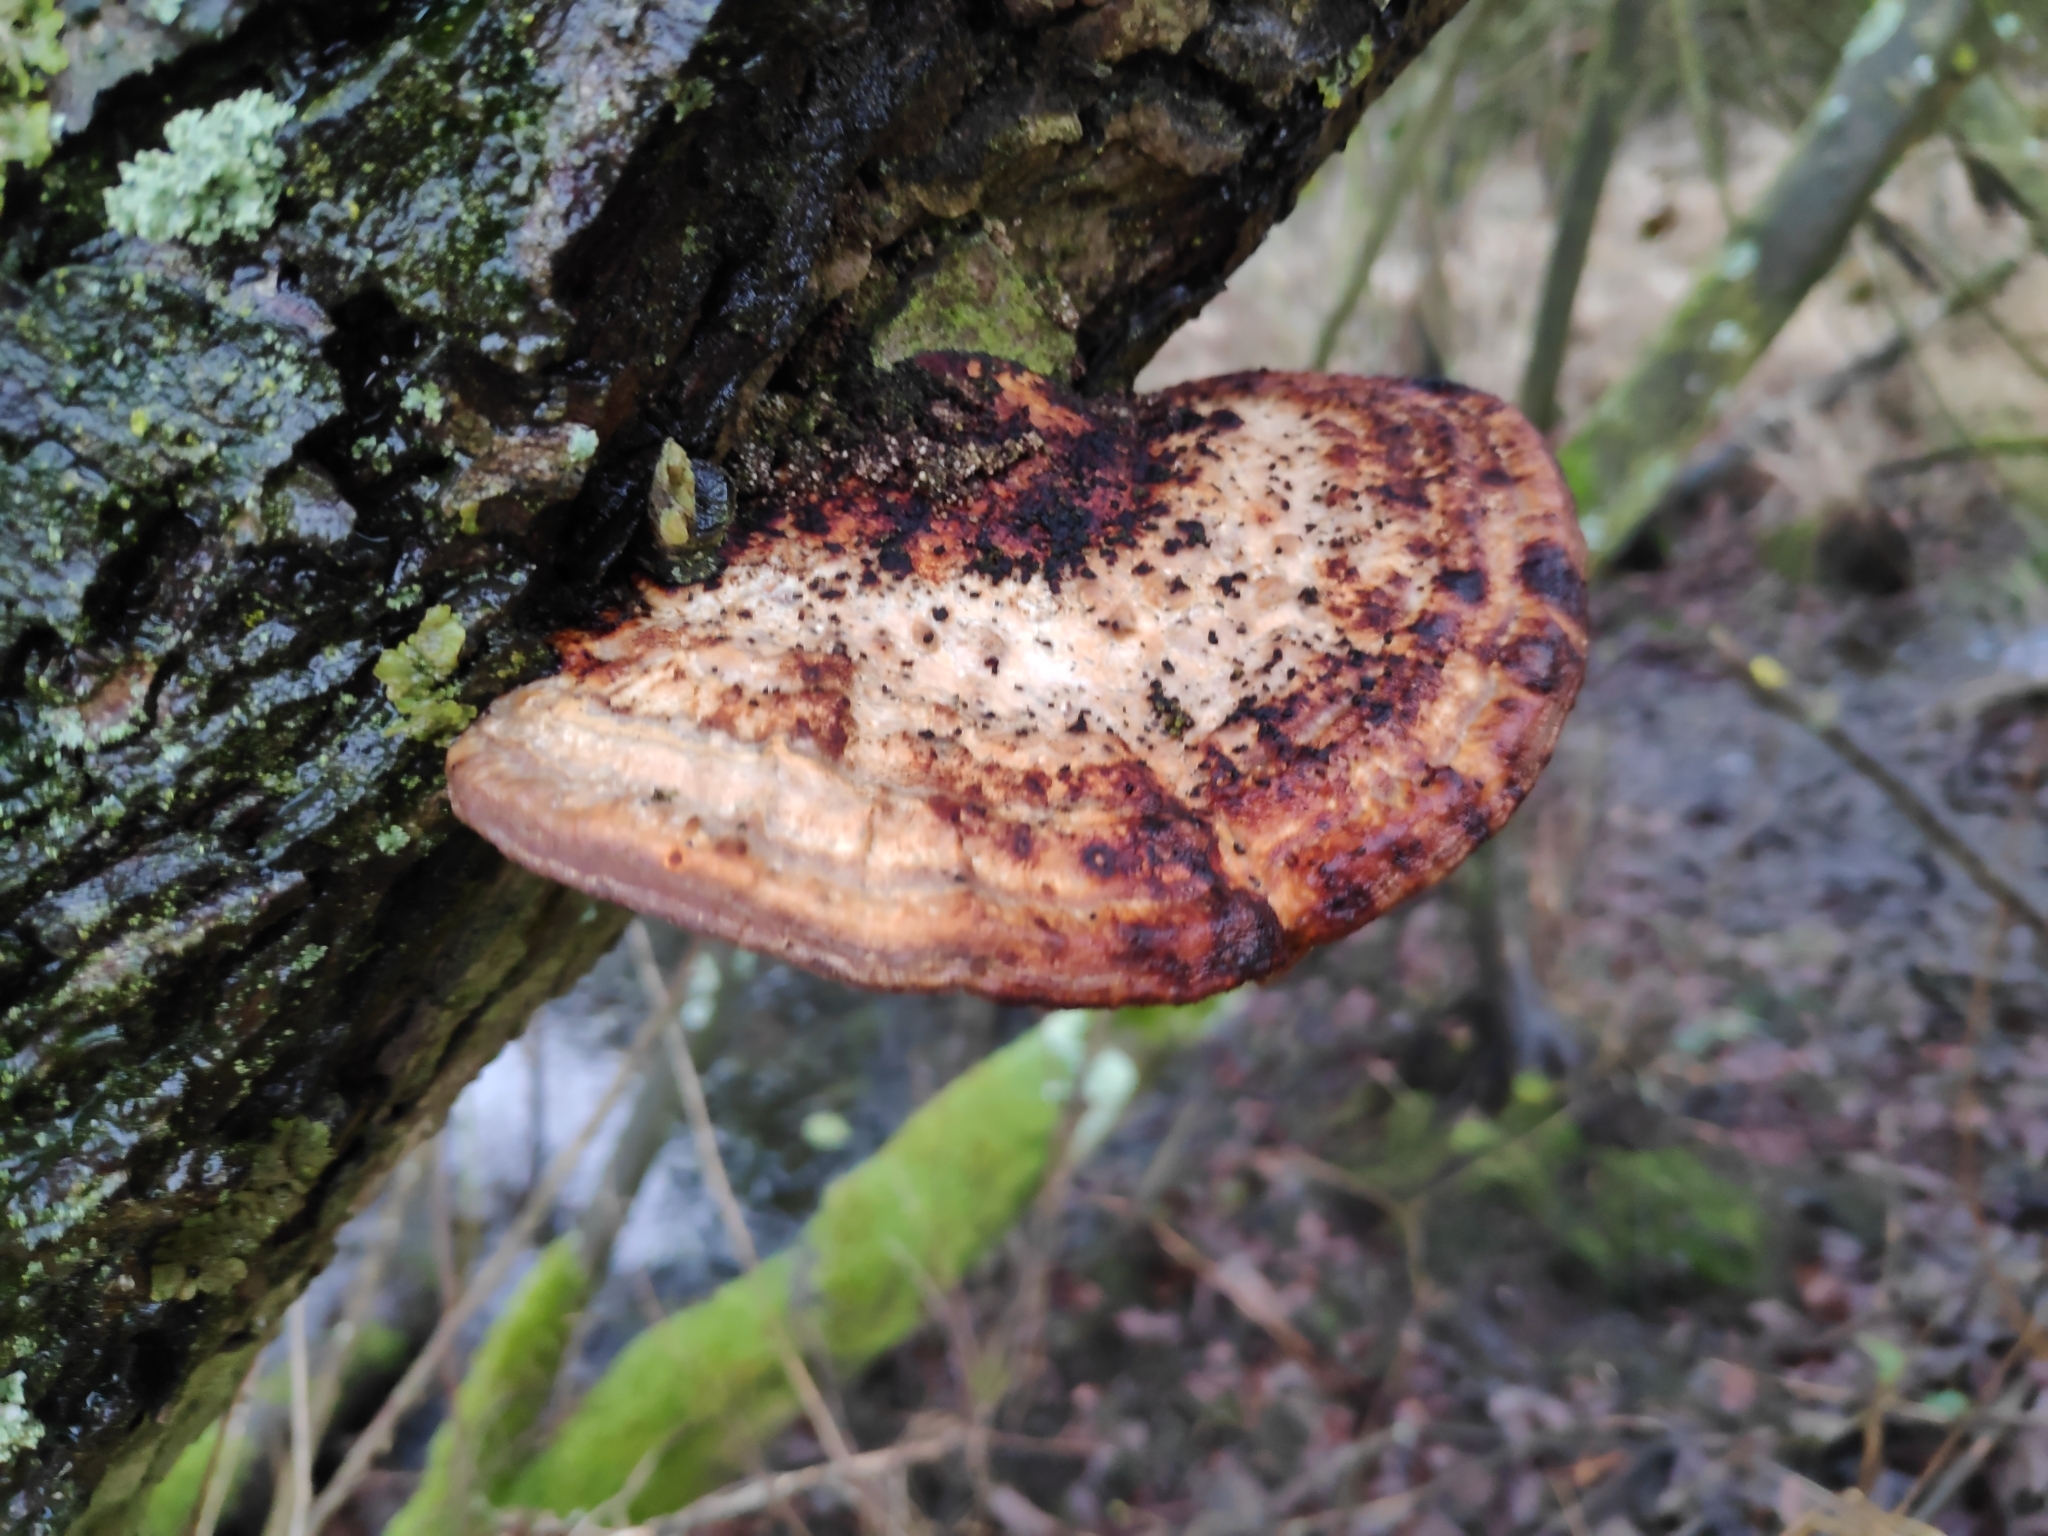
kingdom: Fungi
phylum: Basidiomycota
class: Agaricomycetes
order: Polyporales
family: Polyporaceae
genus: Daedaleopsis
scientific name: Daedaleopsis confragosa
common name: Blushing bracket
